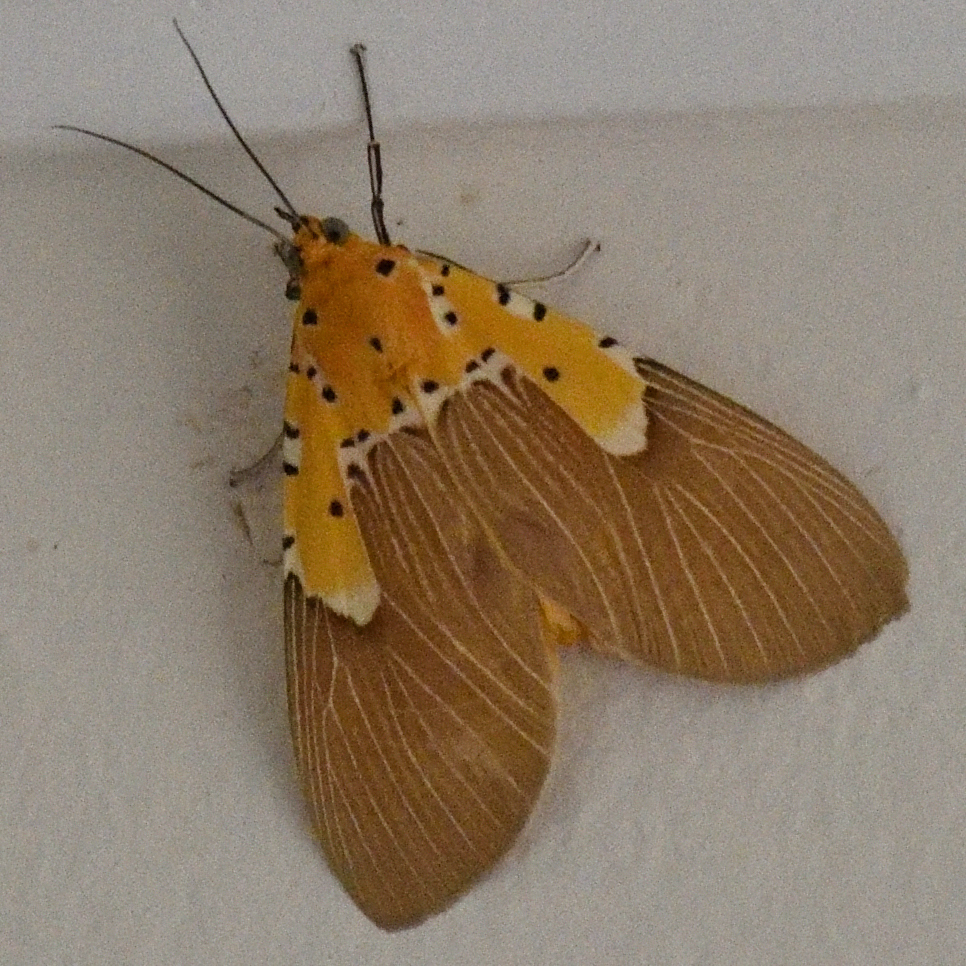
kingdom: Animalia
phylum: Arthropoda
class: Insecta
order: Lepidoptera
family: Erebidae
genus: Asota
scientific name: Asota speciosa
